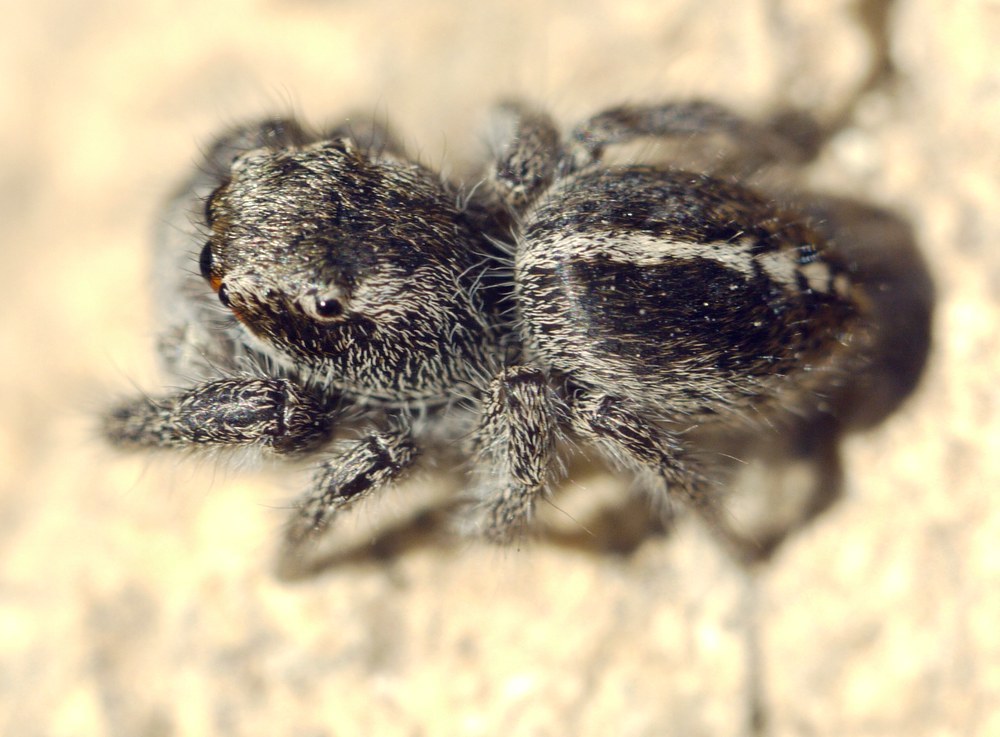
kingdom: Animalia
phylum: Arthropoda
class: Arachnida
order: Araneae
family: Salticidae
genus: Pellenes
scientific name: Pellenes seriatus
